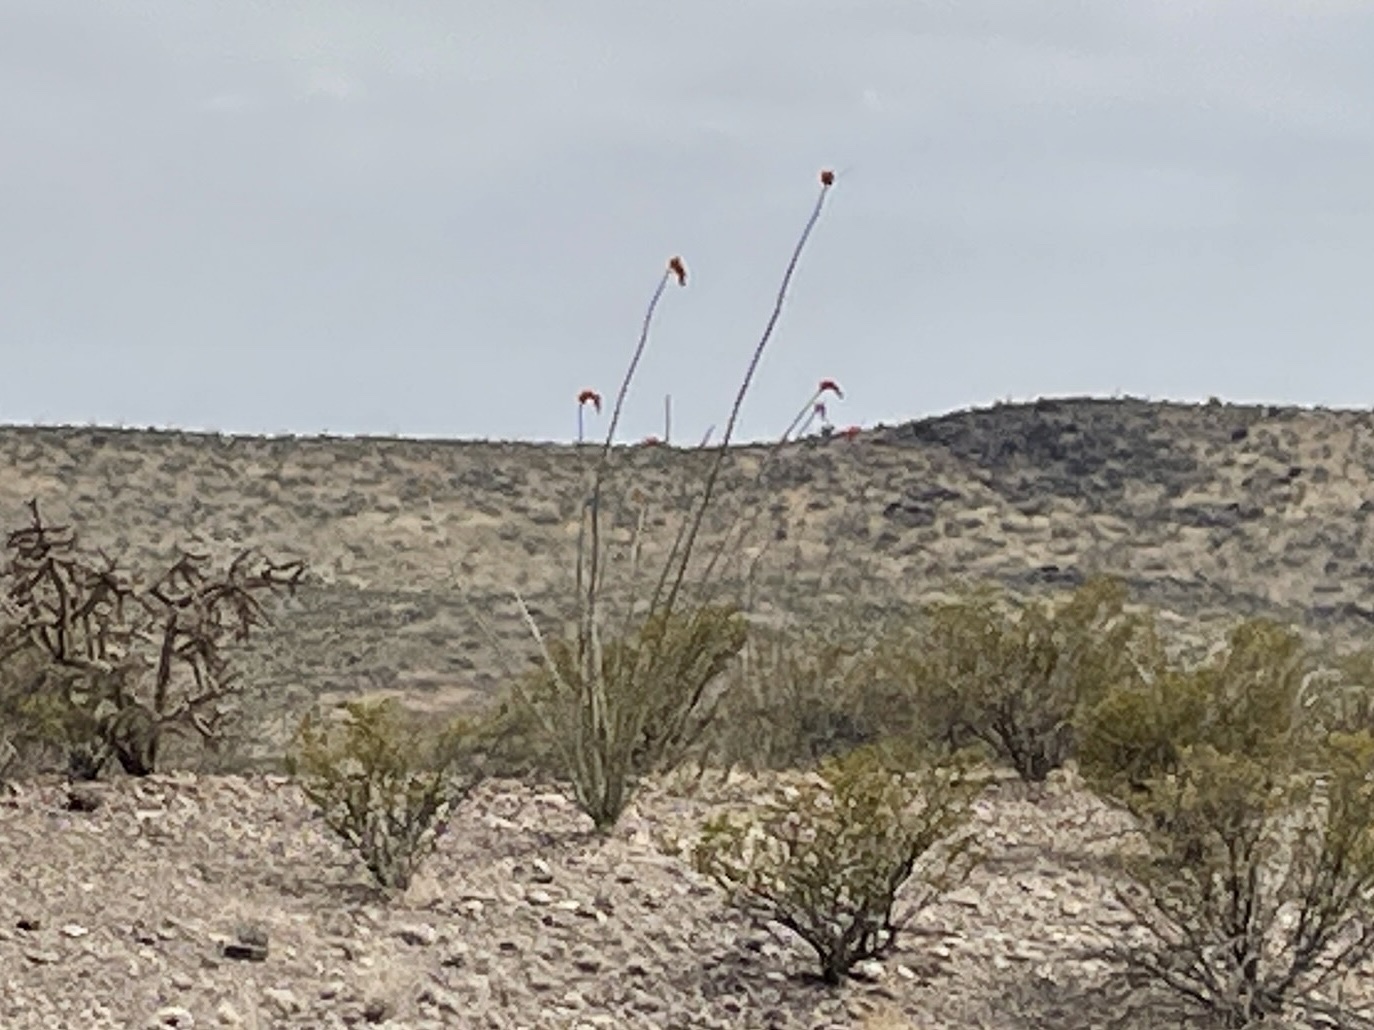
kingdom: Plantae
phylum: Tracheophyta
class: Magnoliopsida
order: Ericales
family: Fouquieriaceae
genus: Fouquieria
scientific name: Fouquieria splendens
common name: Vine-cactus
